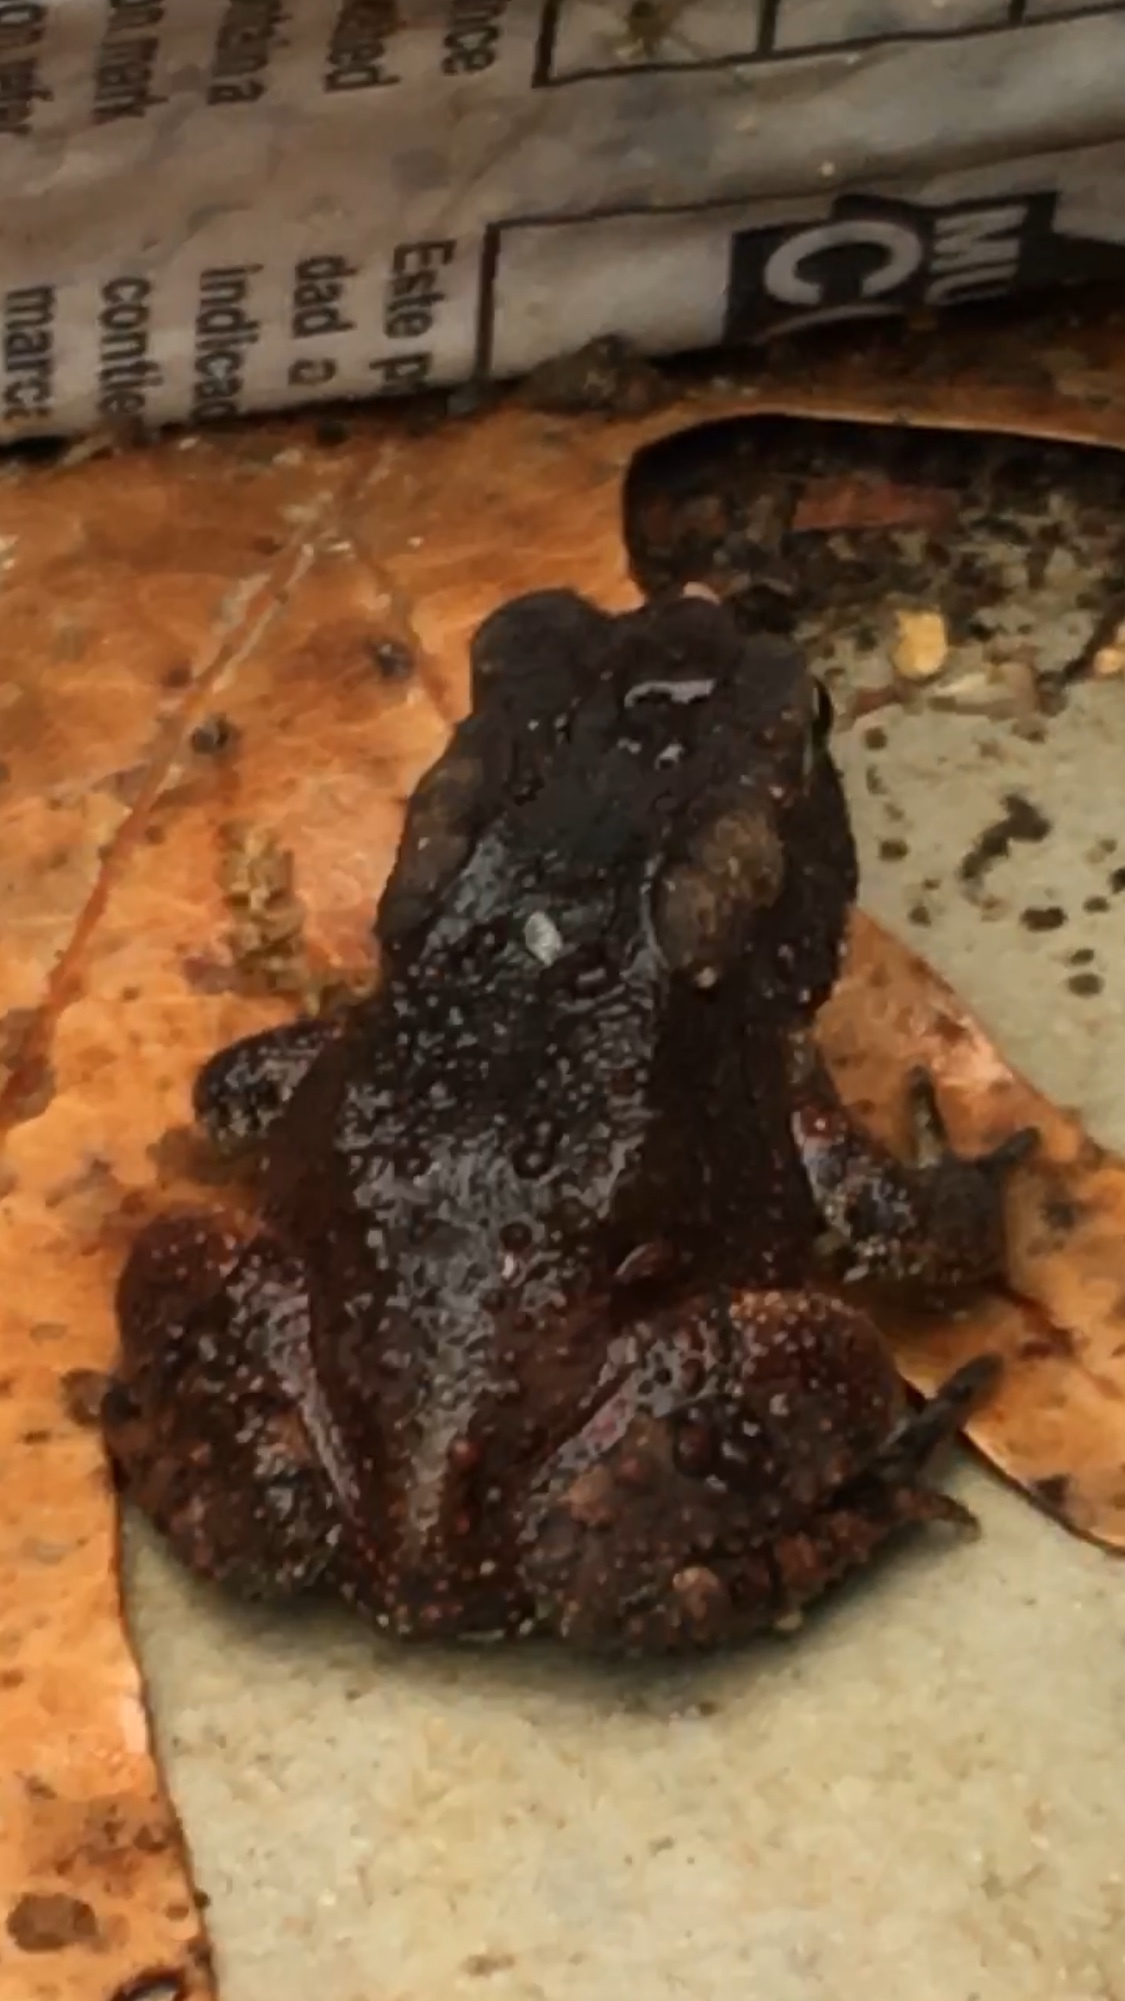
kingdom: Animalia
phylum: Chordata
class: Amphibia
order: Anura
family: Bufonidae
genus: Anaxyrus
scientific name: Anaxyrus americanus
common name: American toad
